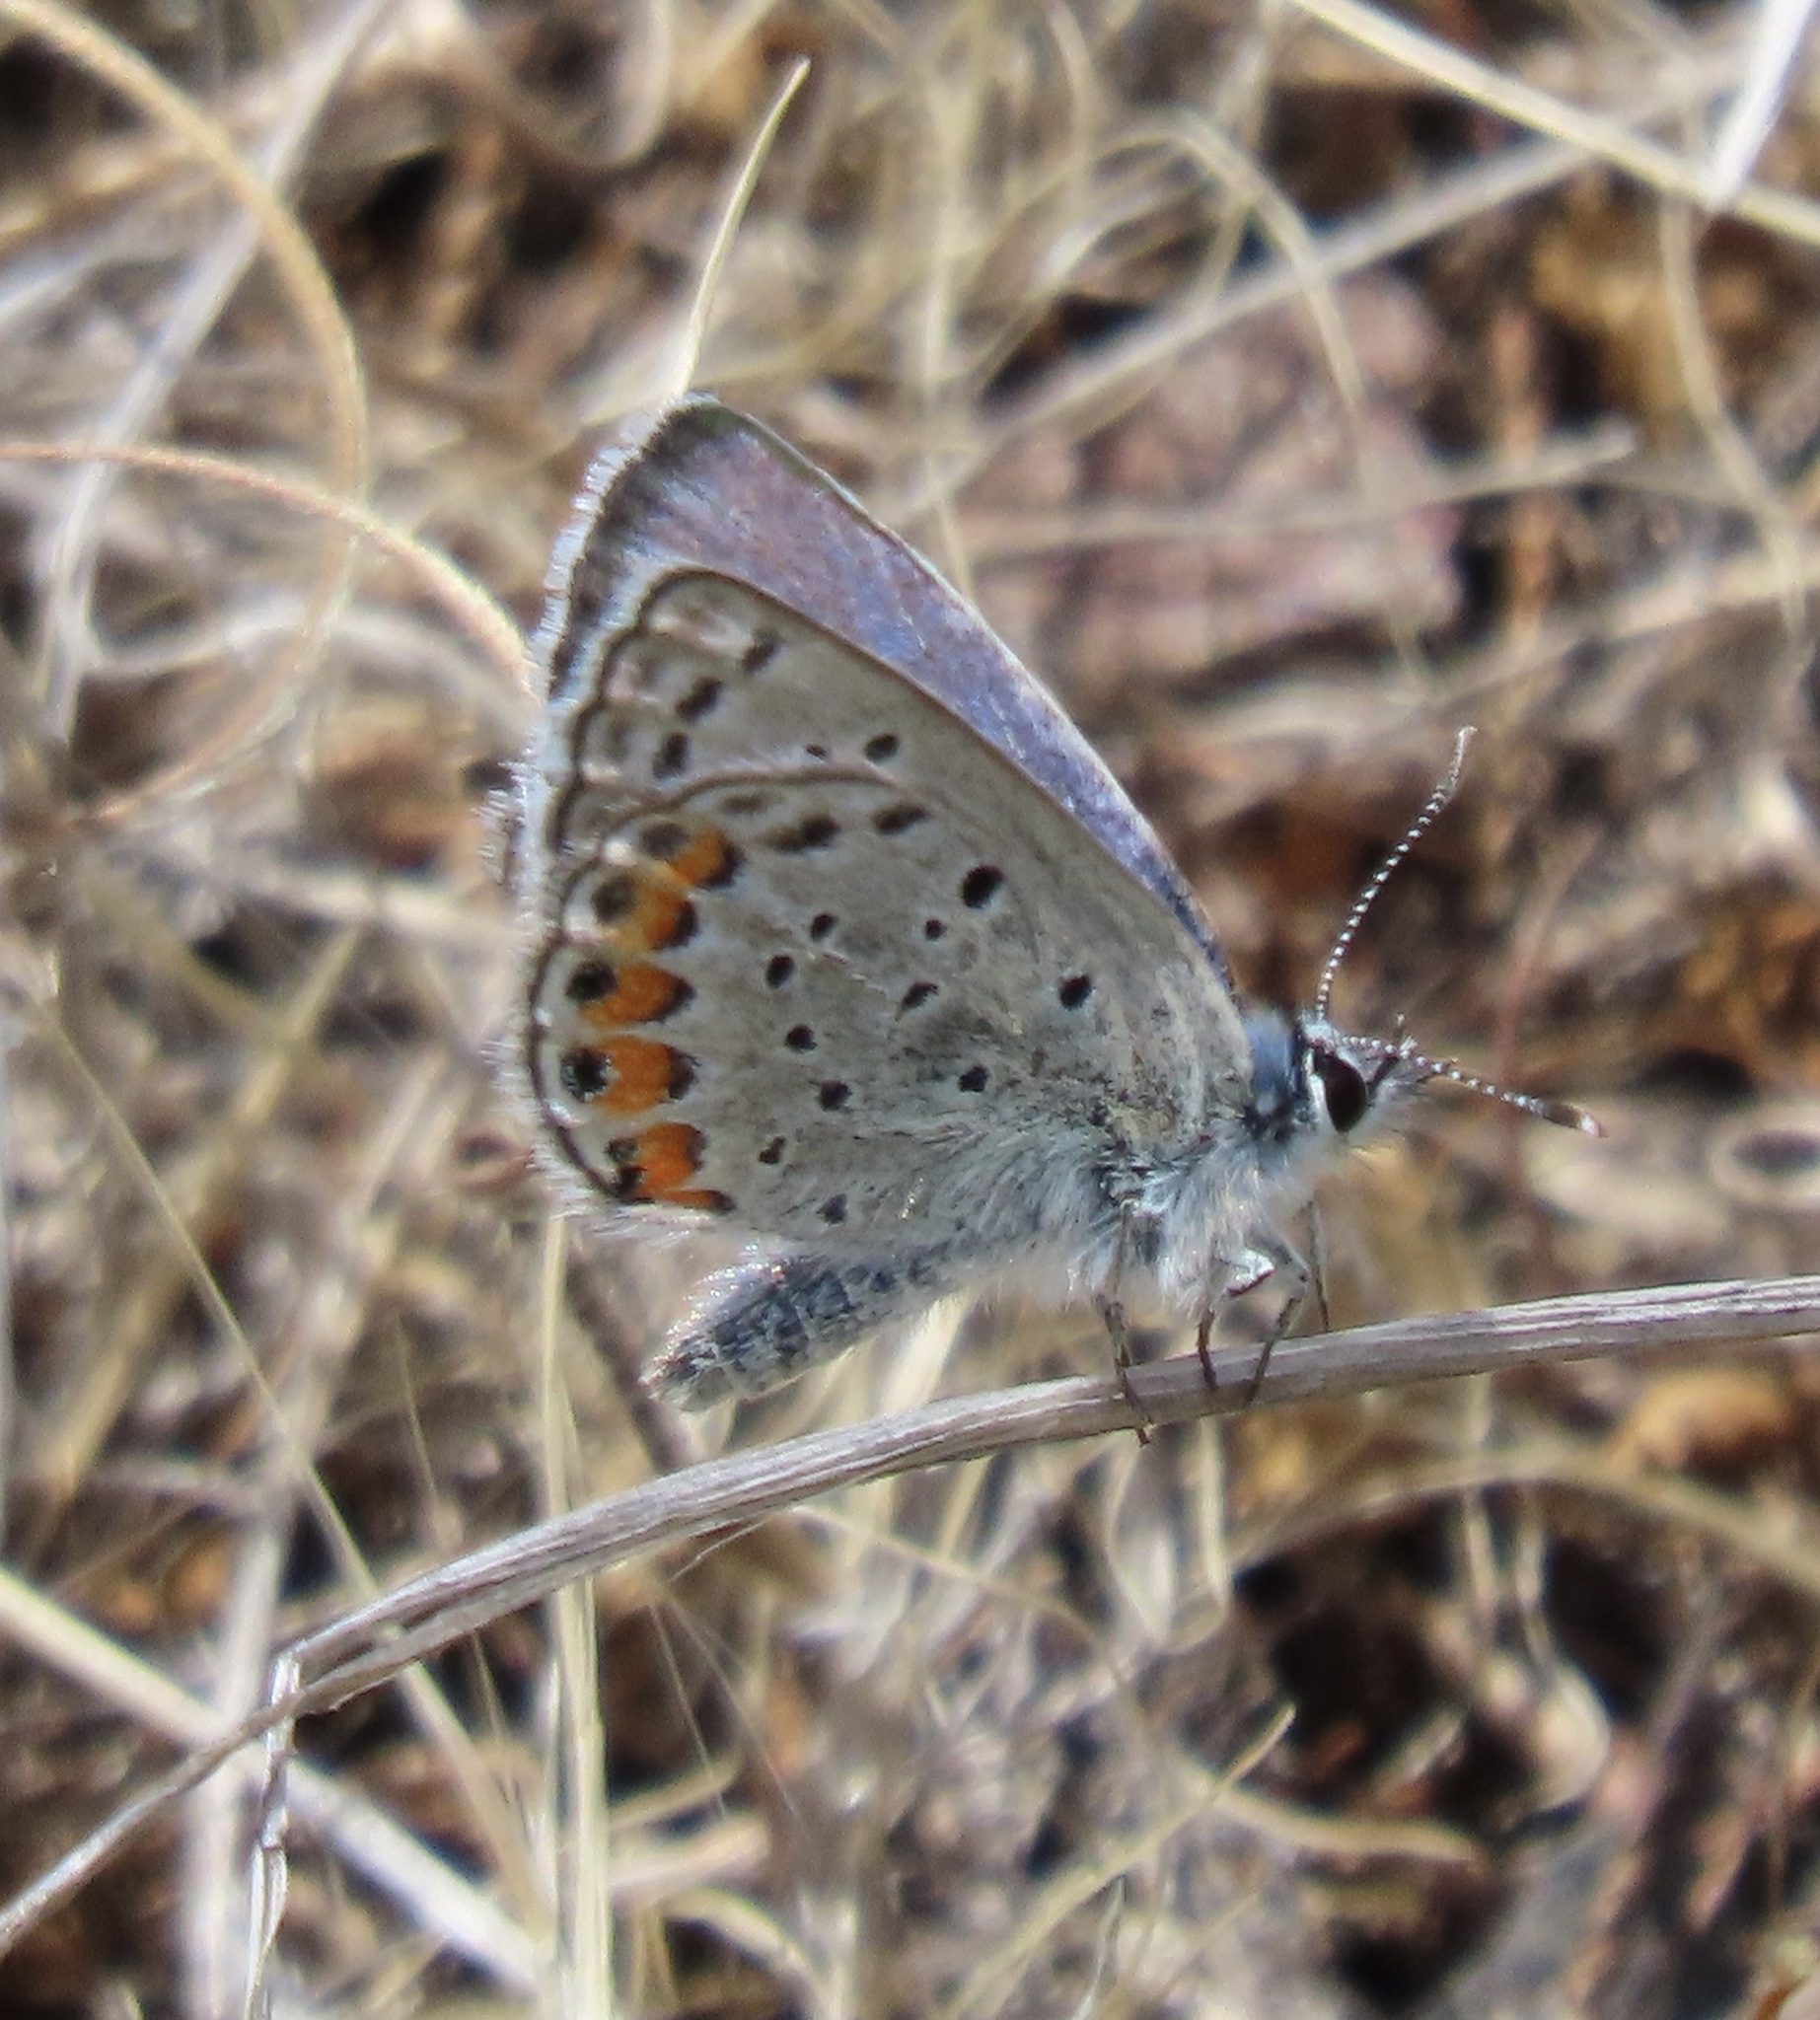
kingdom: Animalia
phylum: Arthropoda
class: Insecta
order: Lepidoptera
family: Lycaenidae
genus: Icaricia
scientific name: Icaricia acmon
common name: Acmon blue
